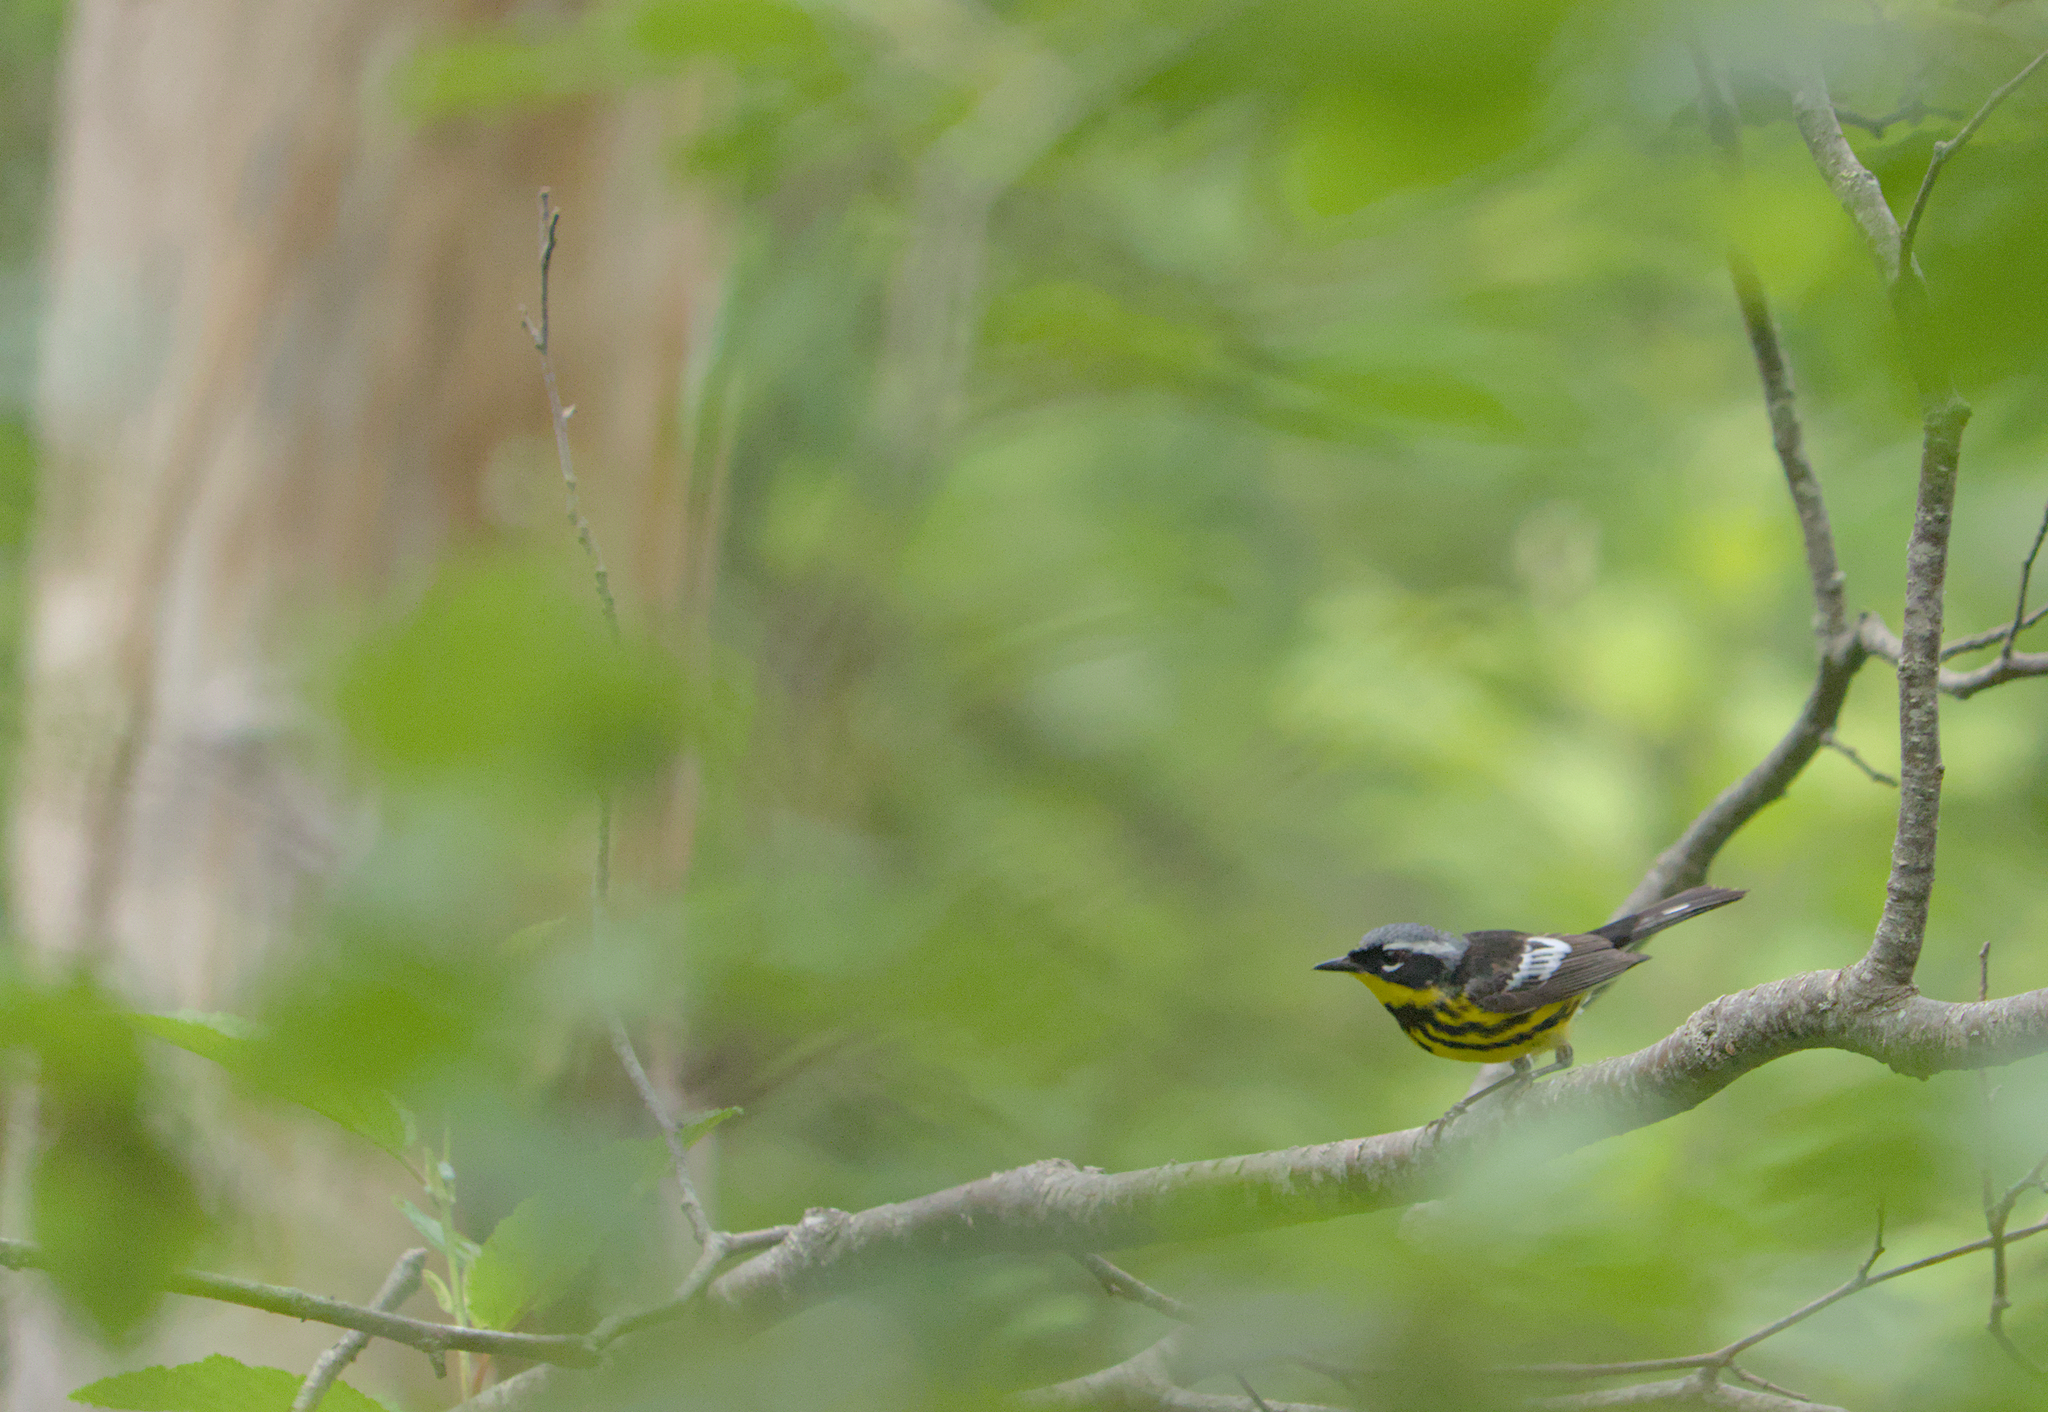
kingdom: Animalia
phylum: Chordata
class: Aves
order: Passeriformes
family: Parulidae
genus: Setophaga
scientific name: Setophaga magnolia
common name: Magnolia warbler
